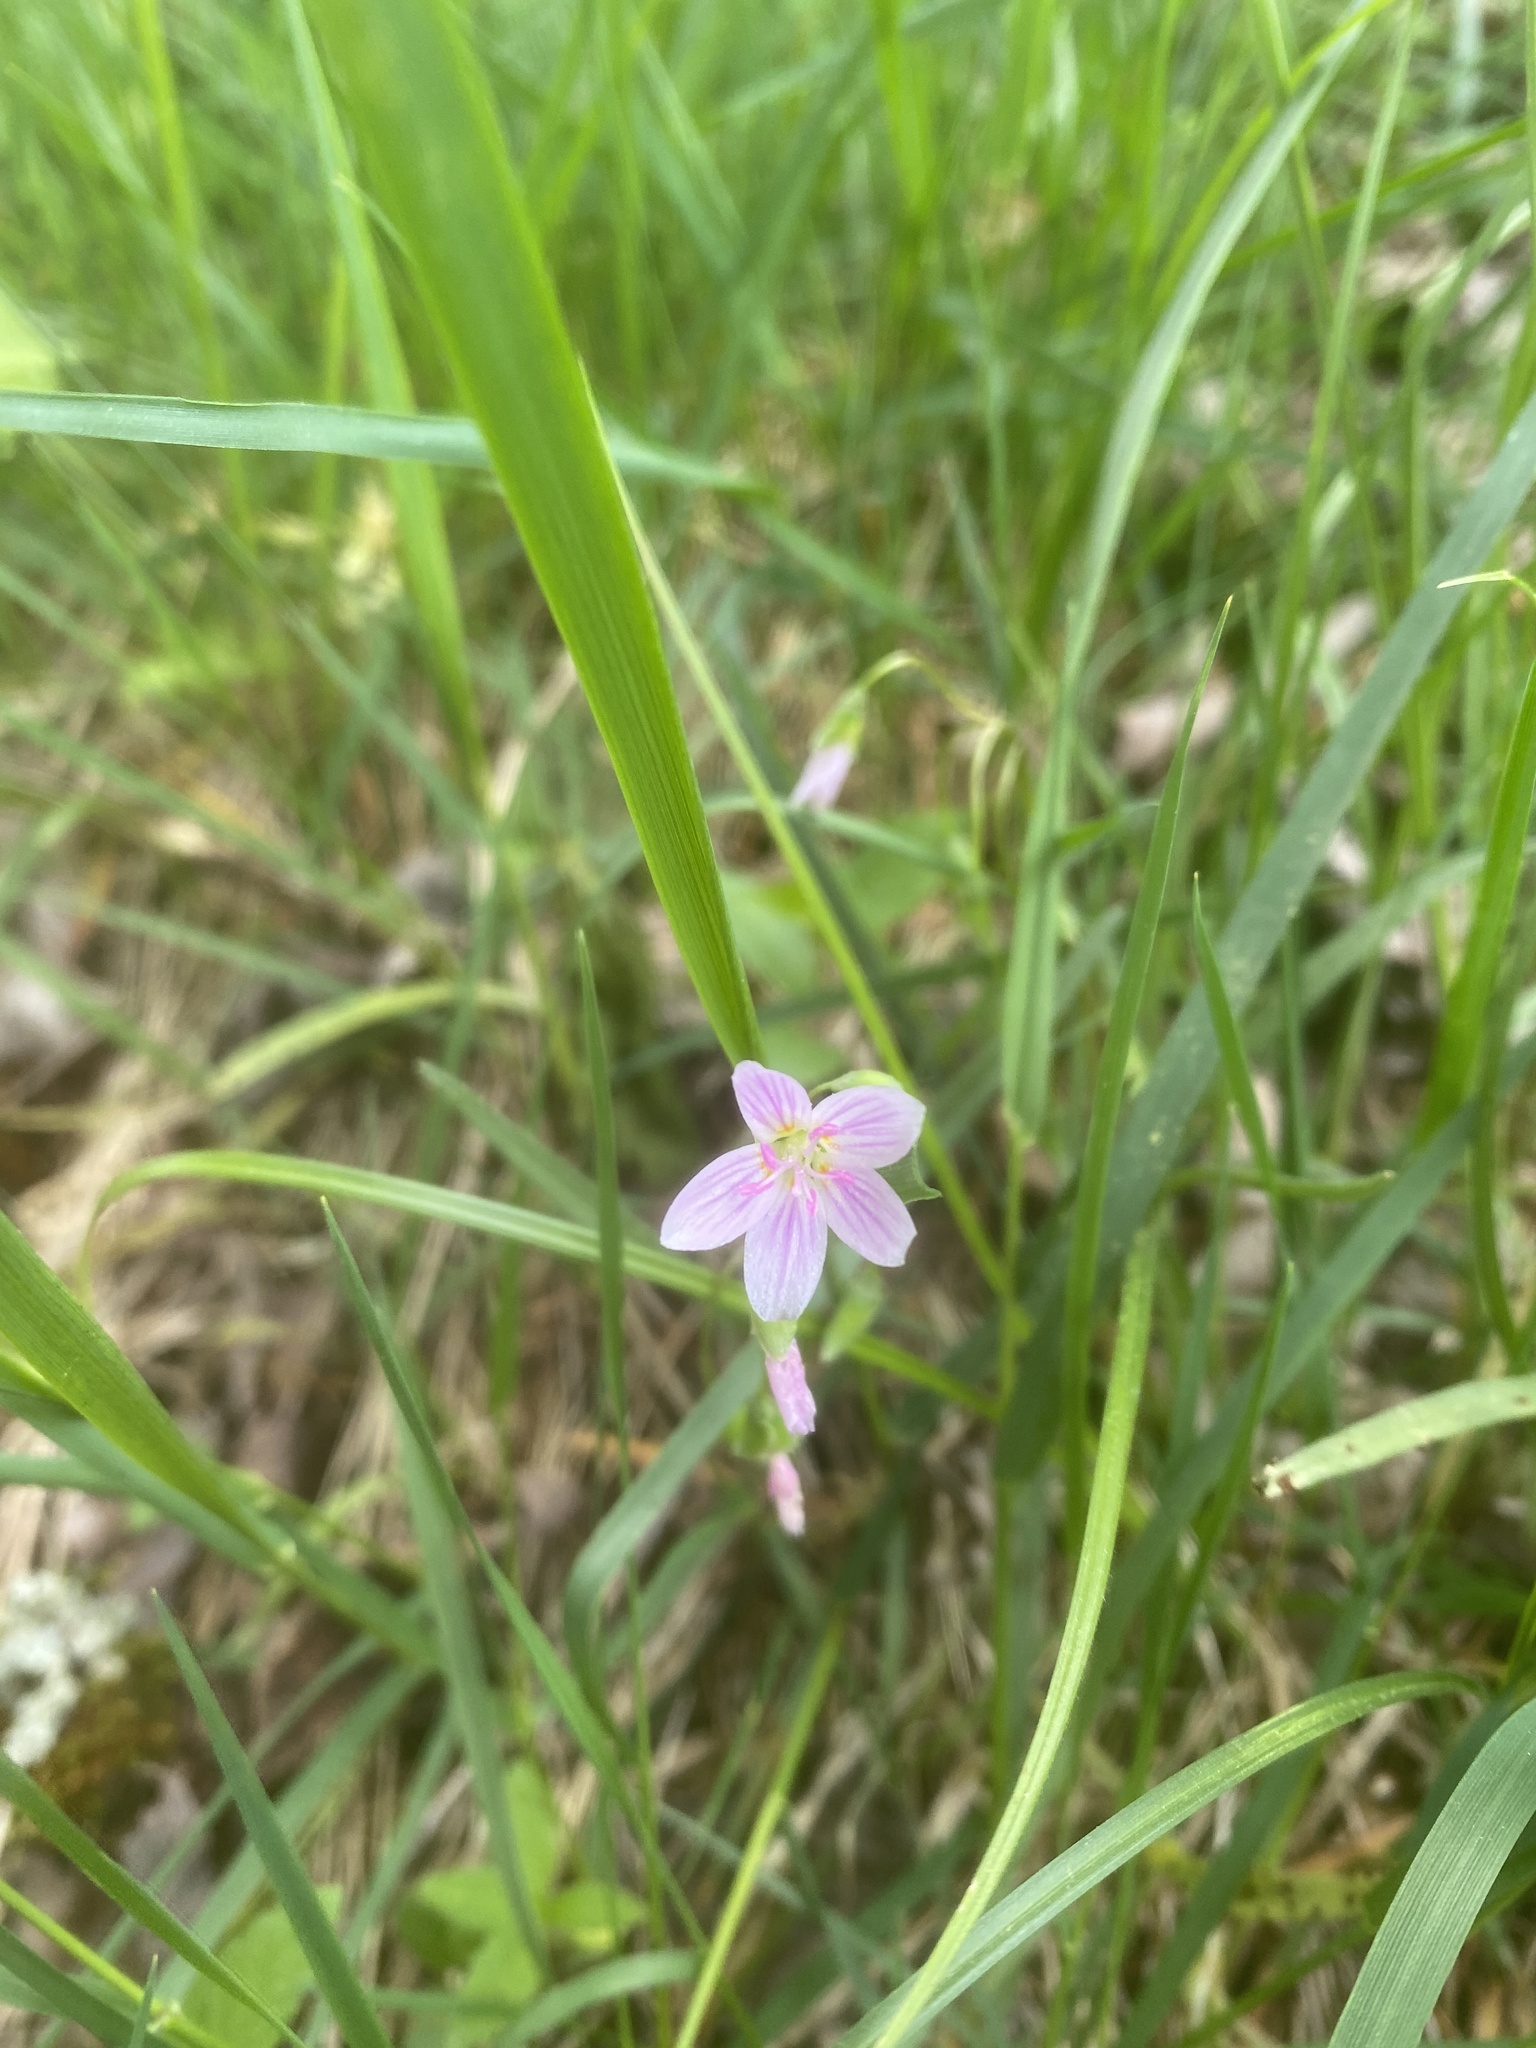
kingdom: Plantae
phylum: Tracheophyta
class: Magnoliopsida
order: Caryophyllales
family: Montiaceae
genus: Claytonia
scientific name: Claytonia virginica
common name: Virginia springbeauty
